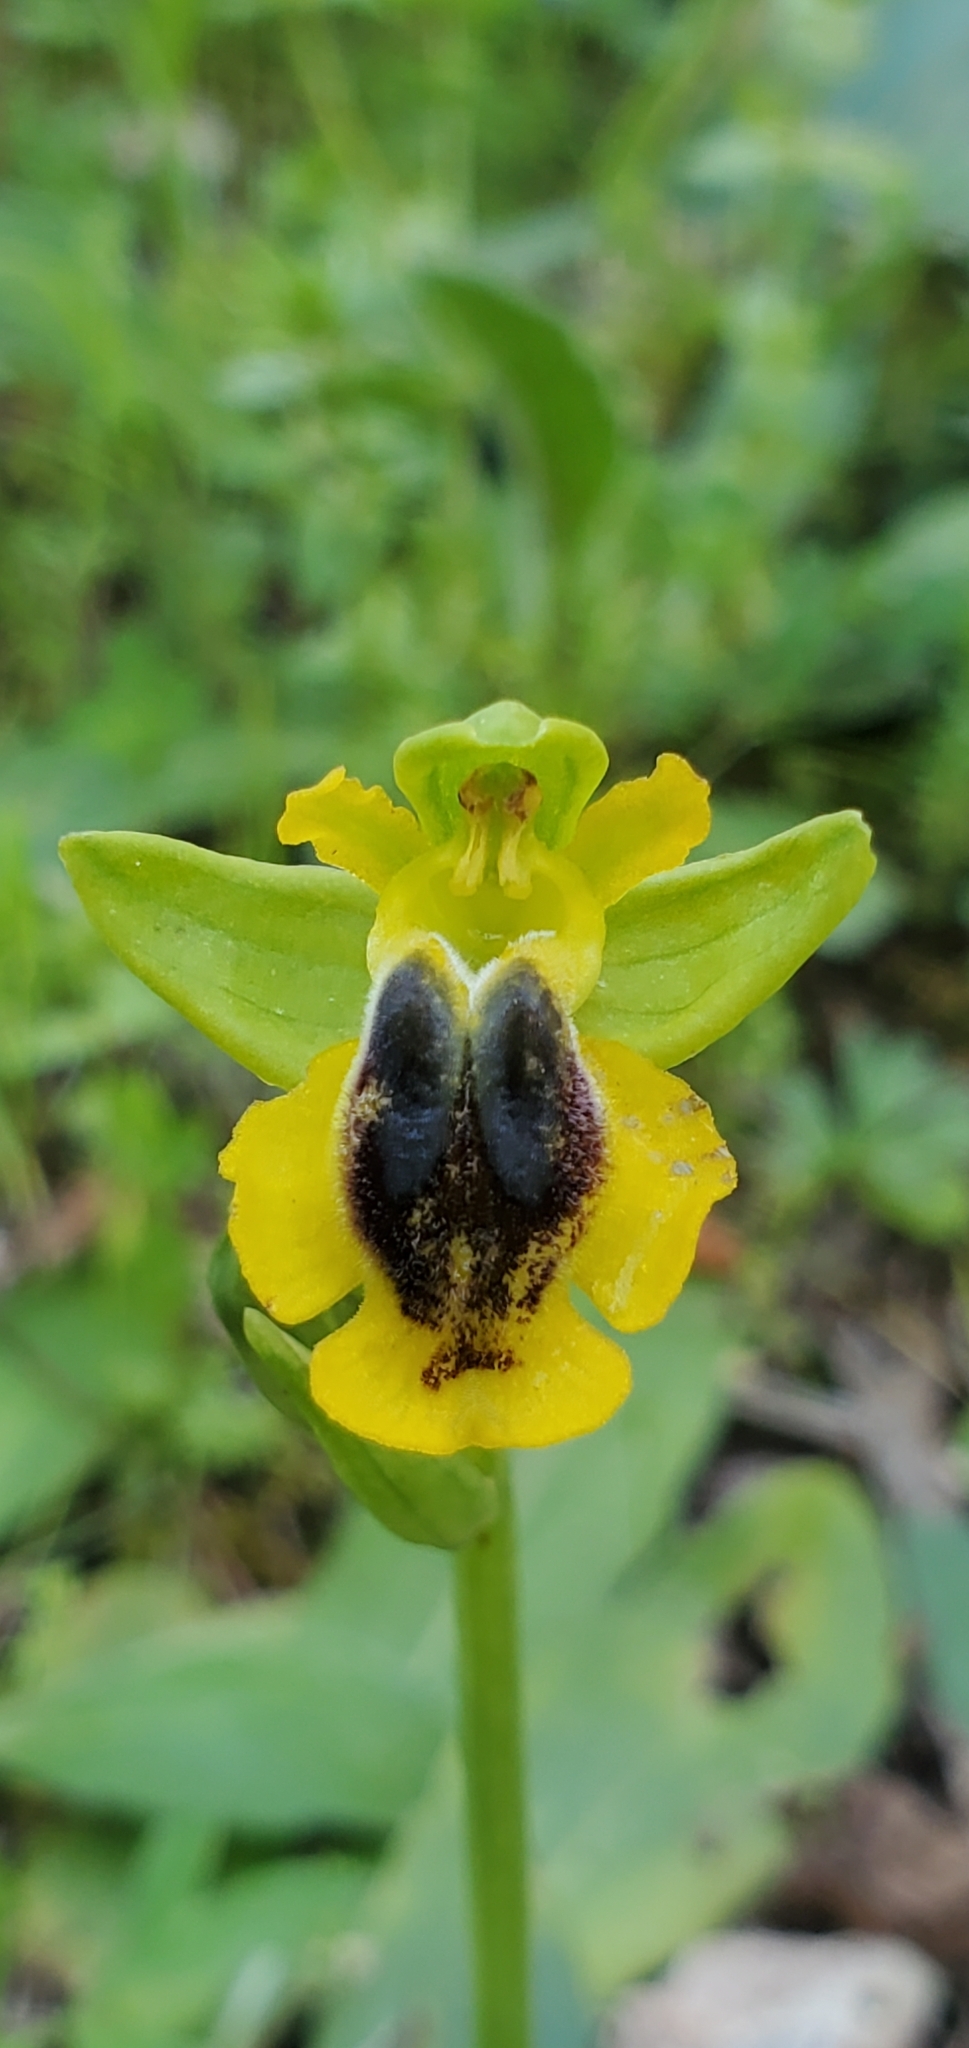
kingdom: Plantae
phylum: Tracheophyta
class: Liliopsida
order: Asparagales
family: Orchidaceae
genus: Ophrys
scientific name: Ophrys lutea
